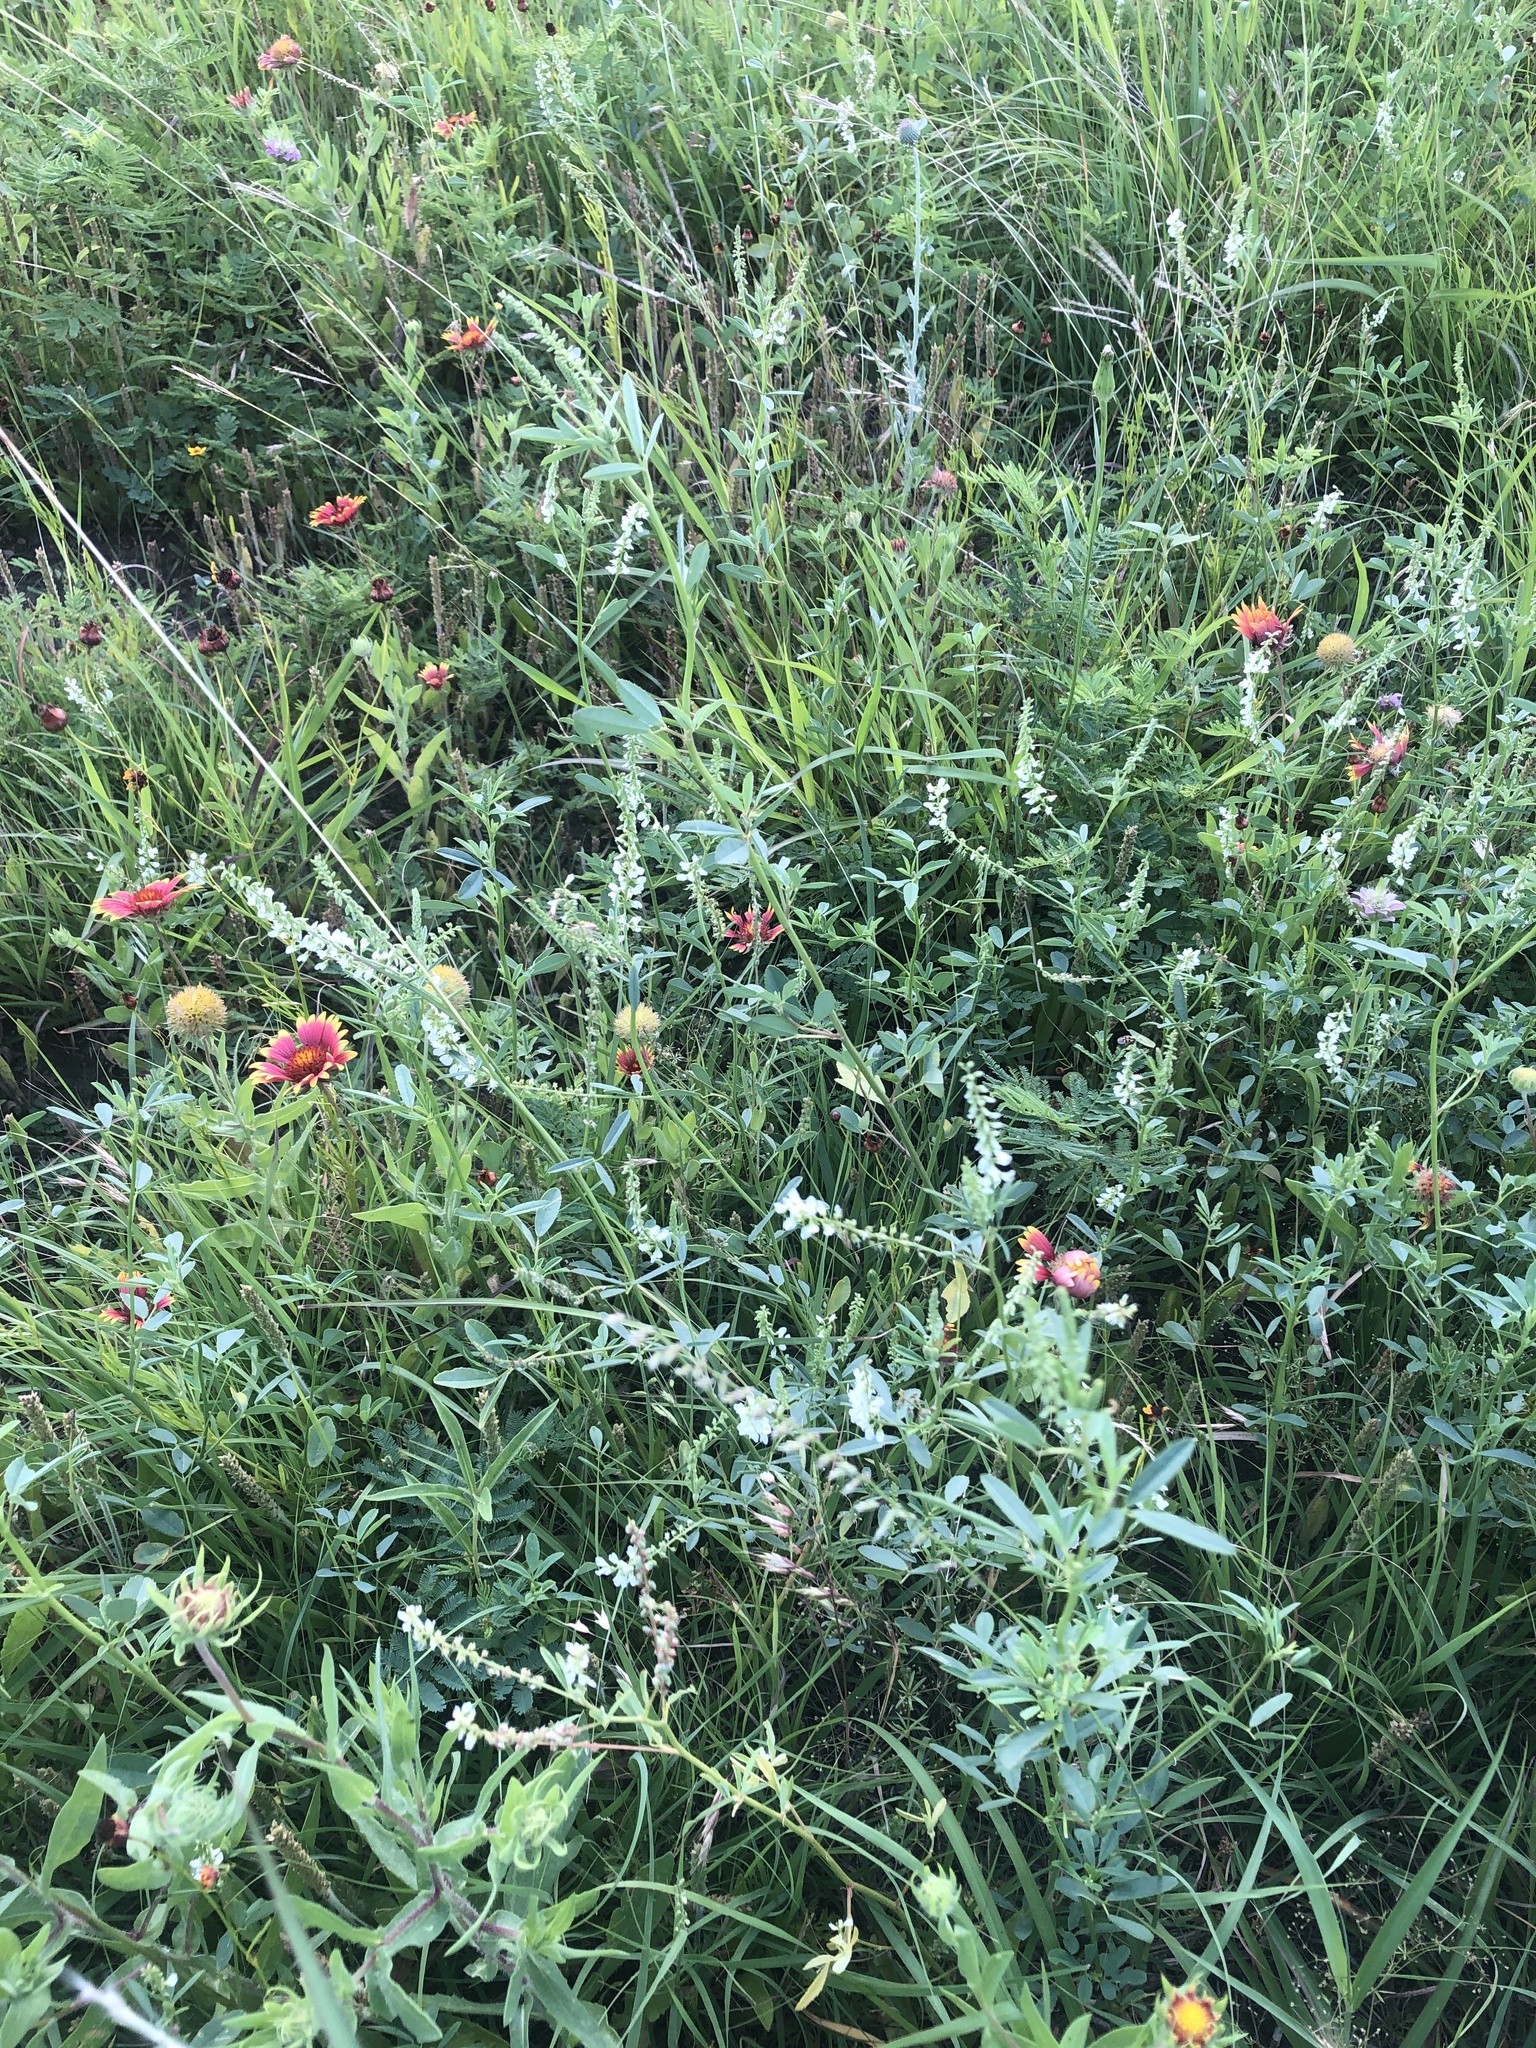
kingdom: Plantae
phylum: Tracheophyta
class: Magnoliopsida
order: Fabales
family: Fabaceae
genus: Melilotus
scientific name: Melilotus albus
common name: White melilot
